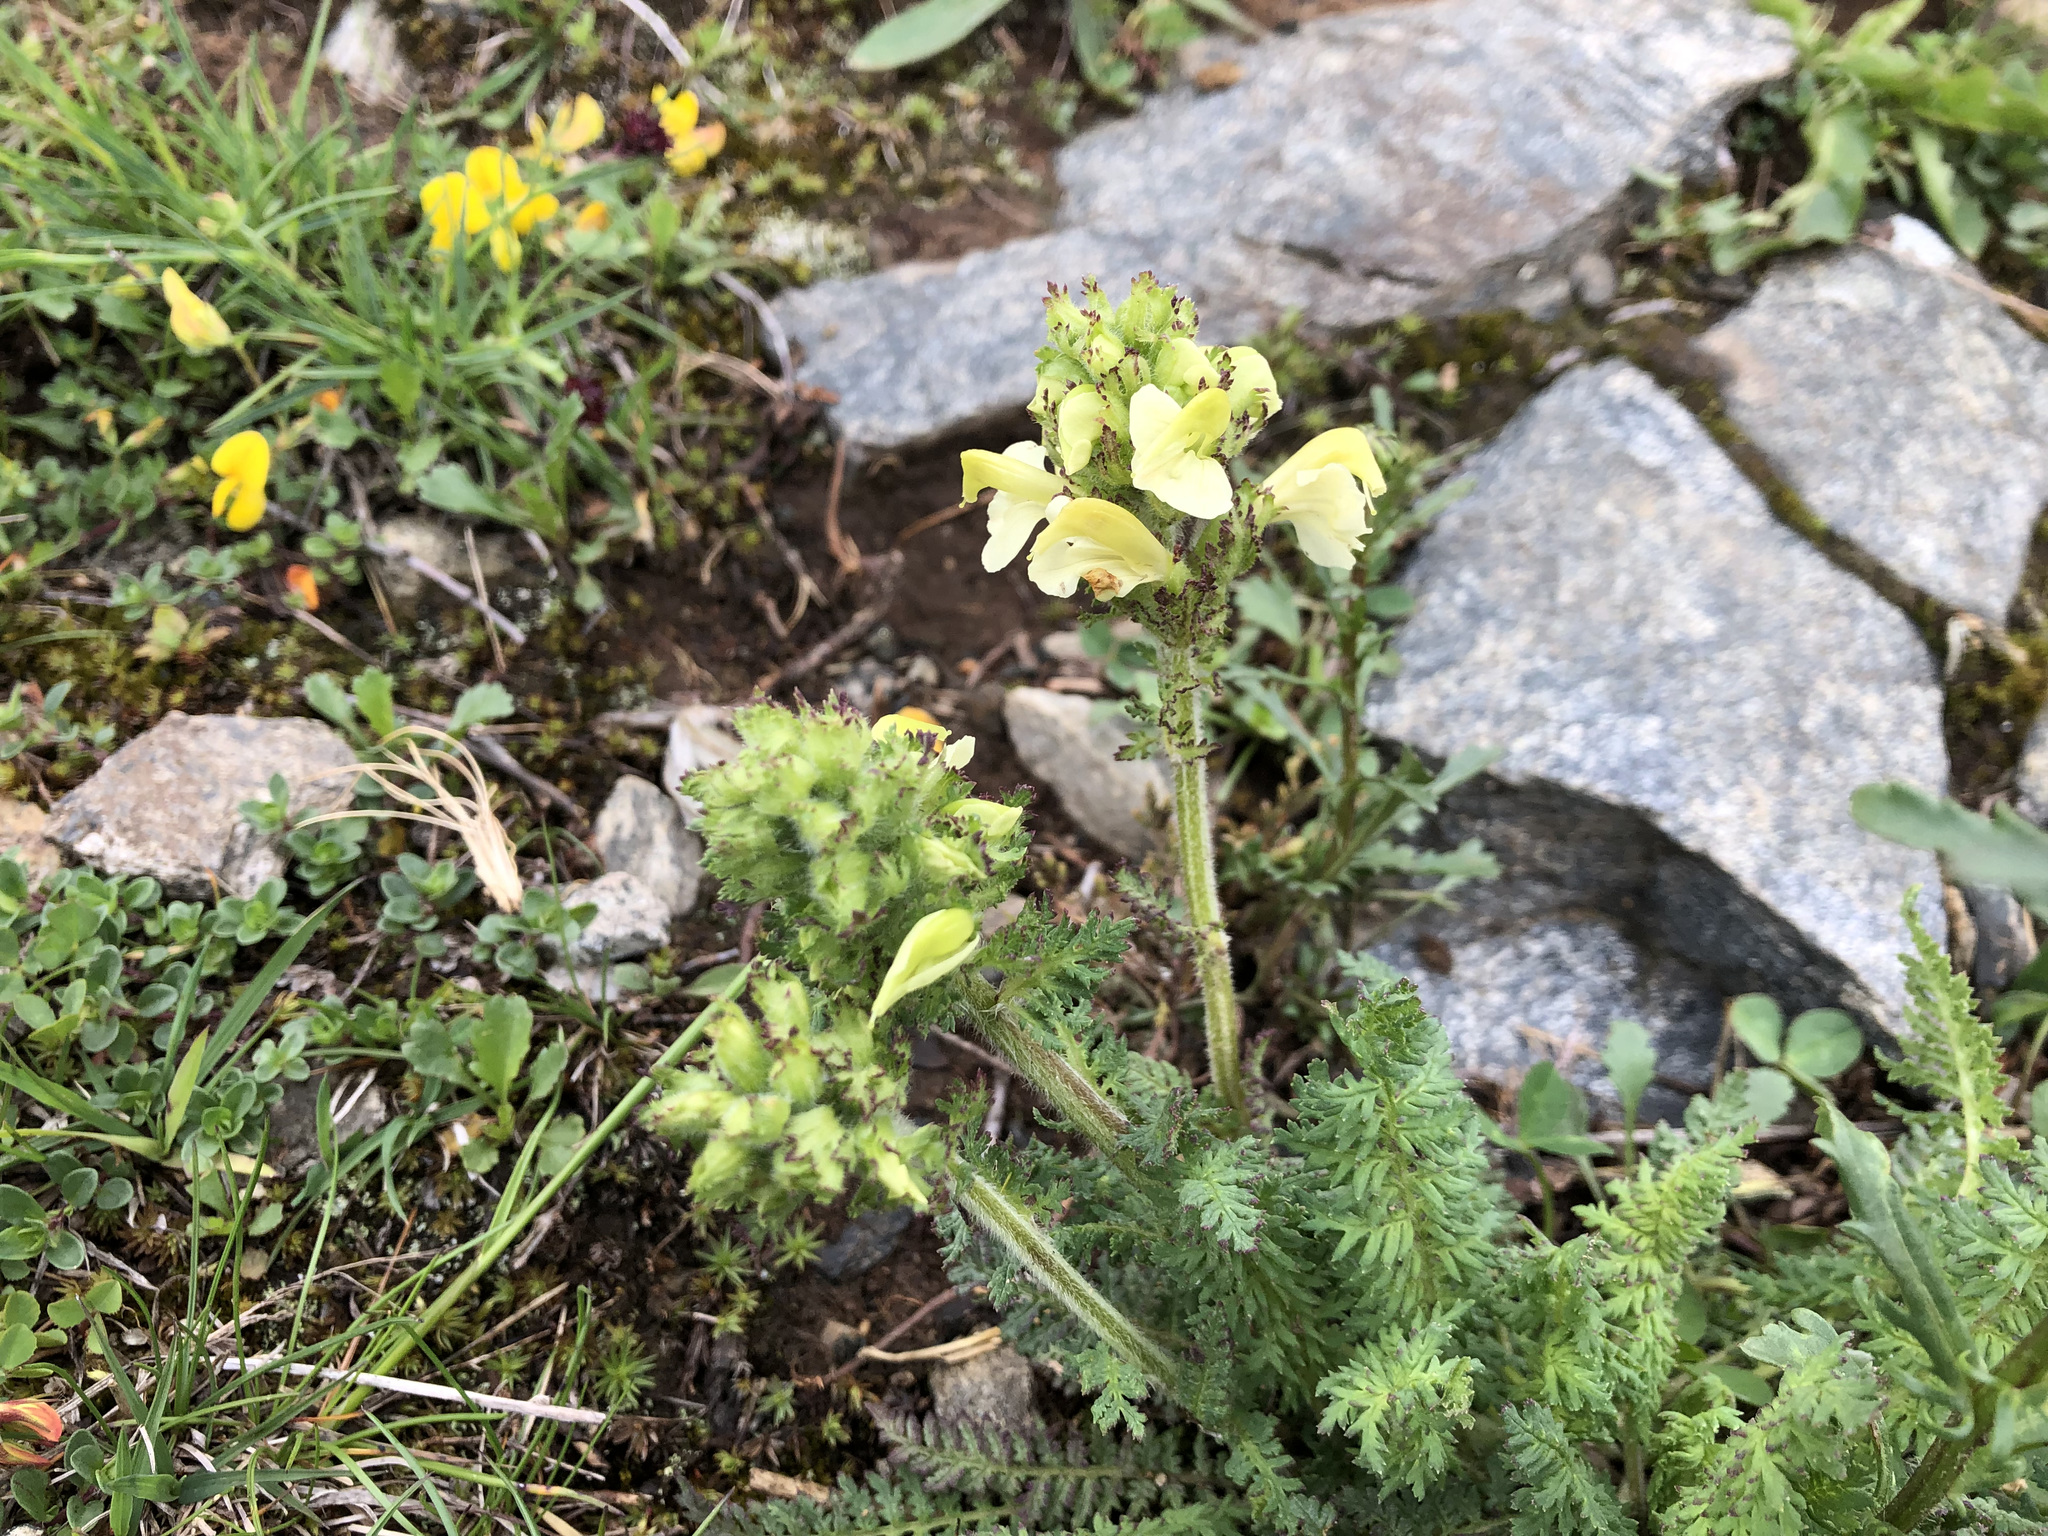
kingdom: Plantae
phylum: Tracheophyta
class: Magnoliopsida
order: Lamiales
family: Orobanchaceae
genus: Pedicularis
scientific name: Pedicularis tuberosa
